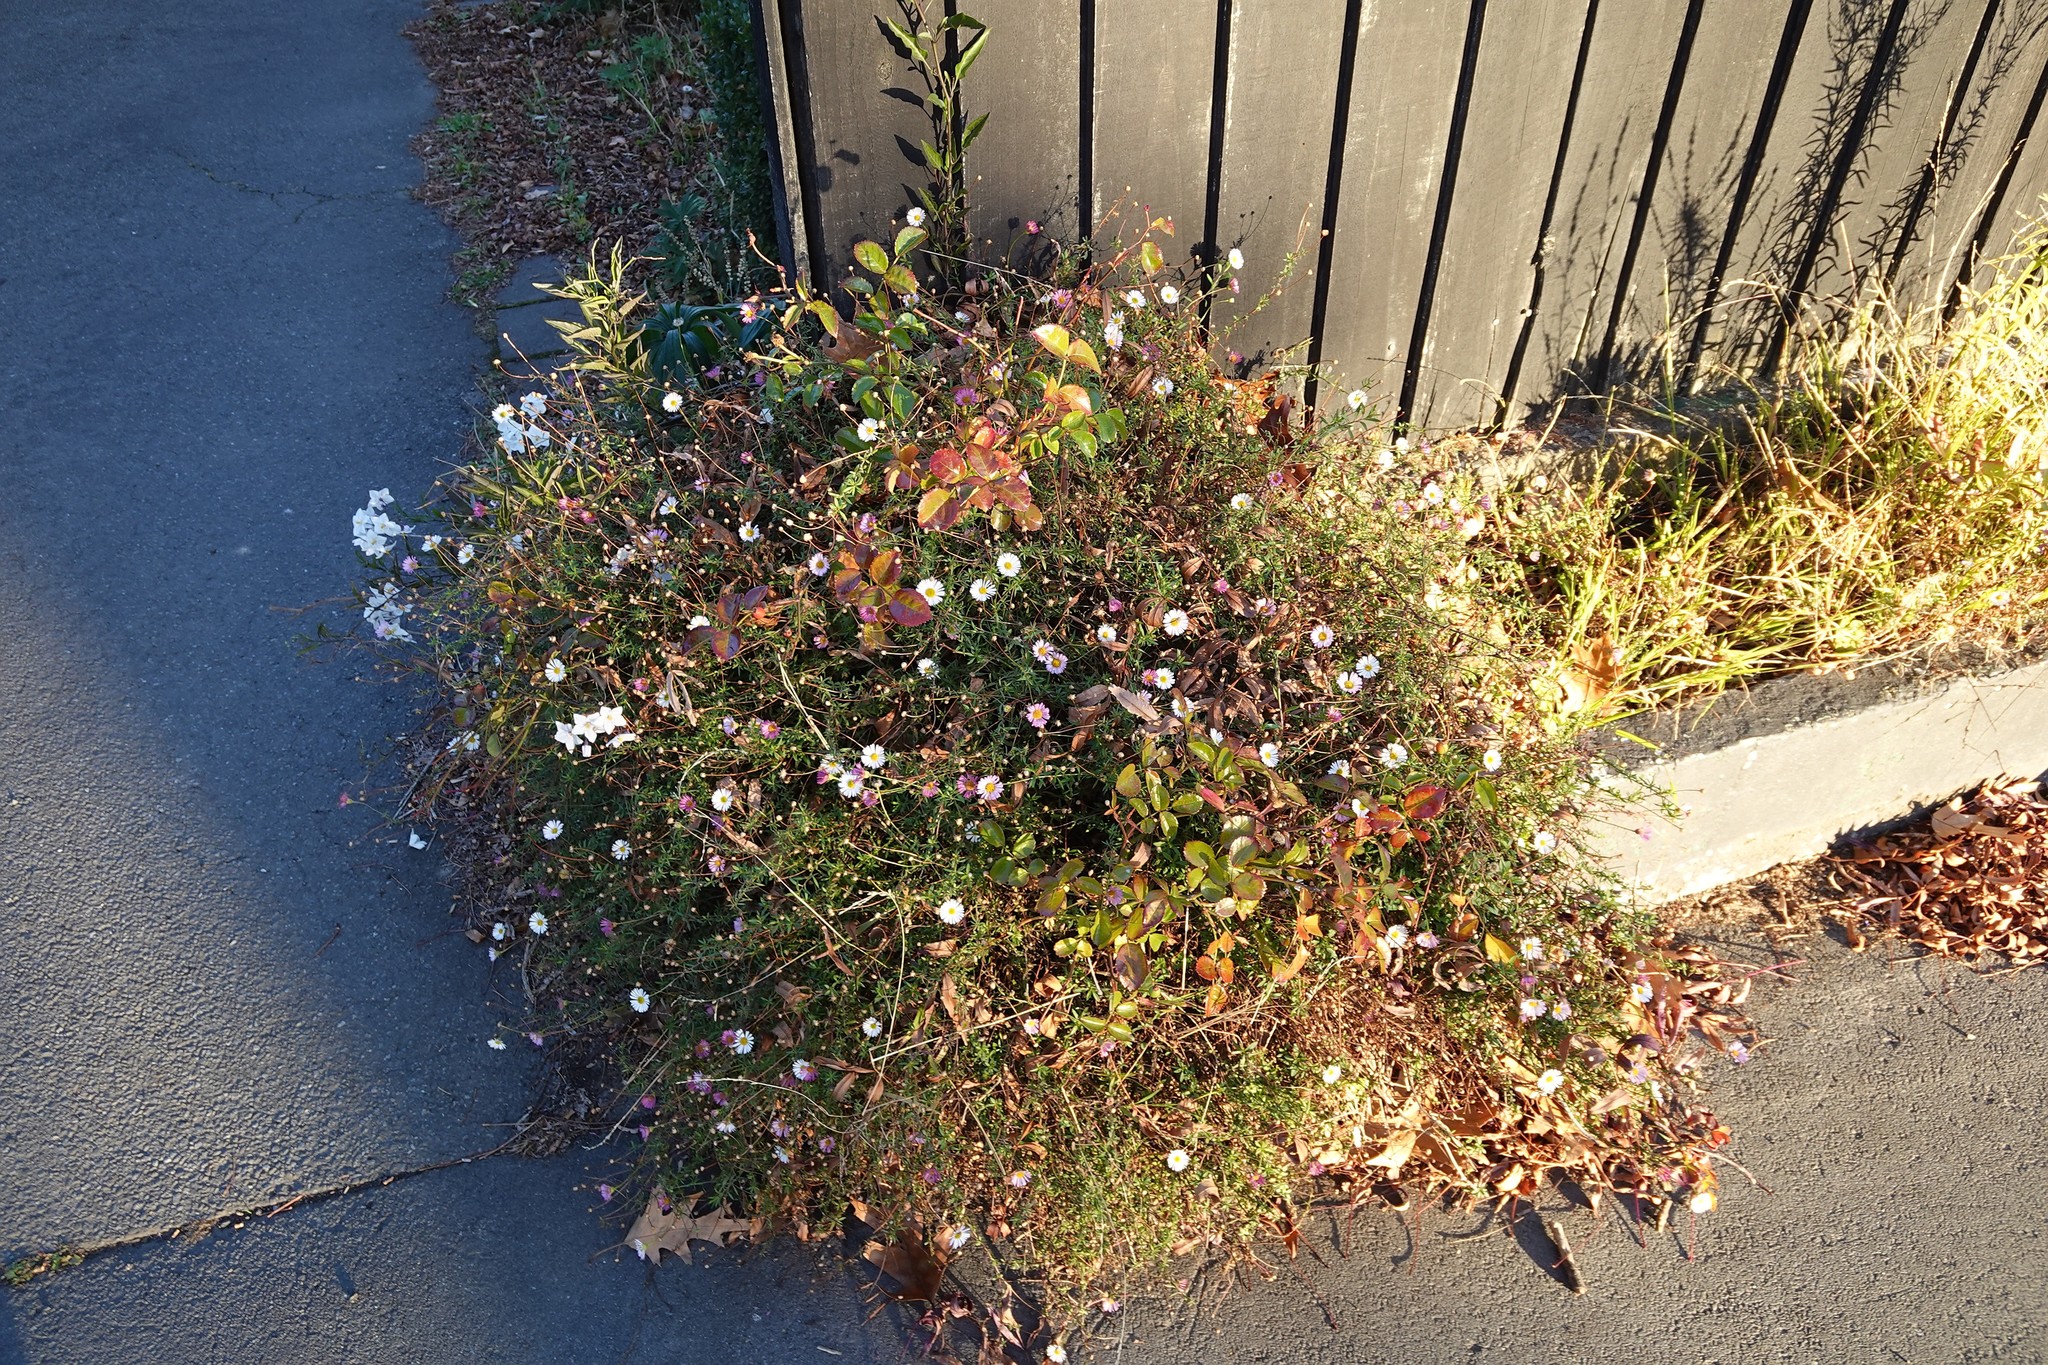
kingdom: Plantae
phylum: Tracheophyta
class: Magnoliopsida
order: Asterales
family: Asteraceae
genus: Erigeron
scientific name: Erigeron karvinskianus
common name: Mexican fleabane
